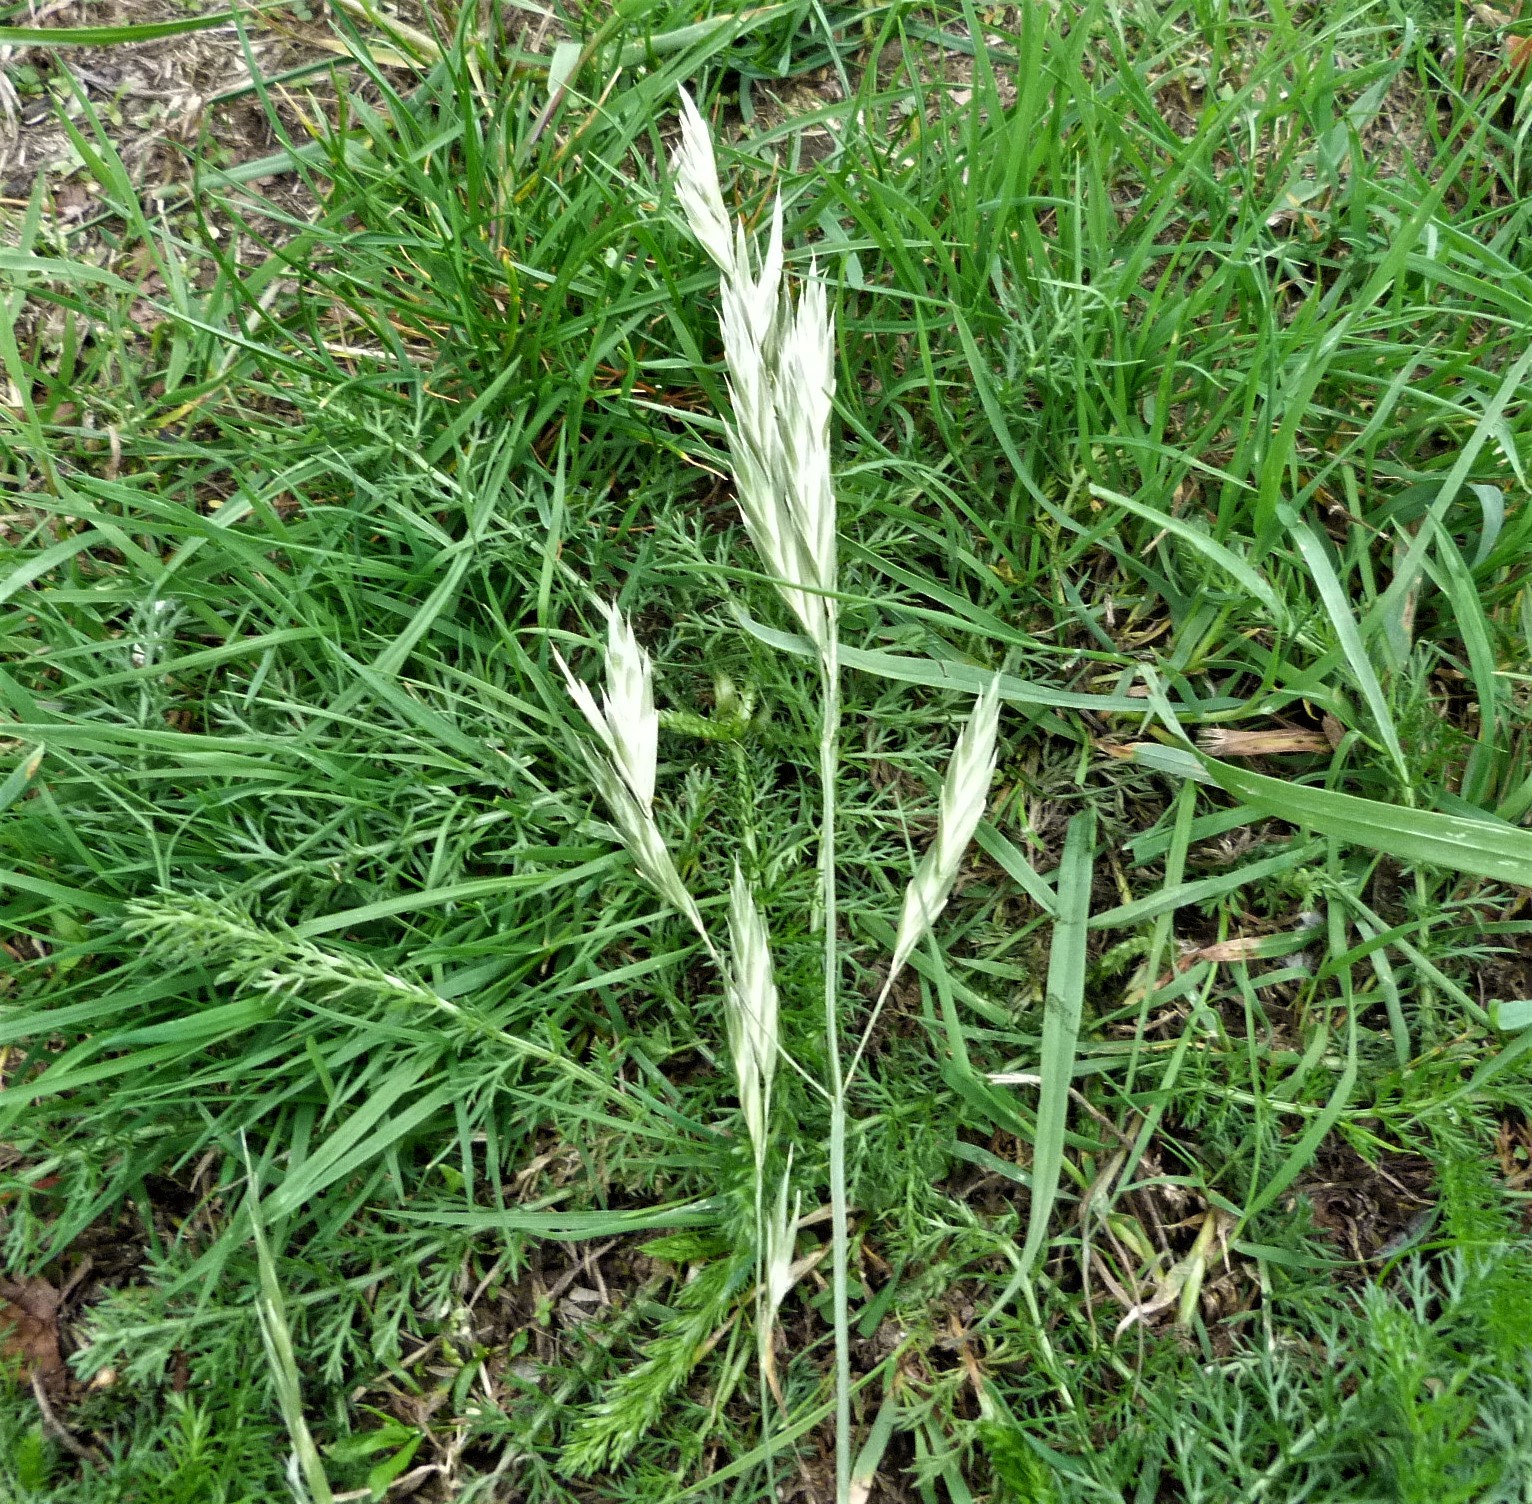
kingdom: Plantae
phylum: Tracheophyta
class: Liliopsida
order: Poales
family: Poaceae
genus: Bromus
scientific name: Bromus catharticus
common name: Rescuegrass
